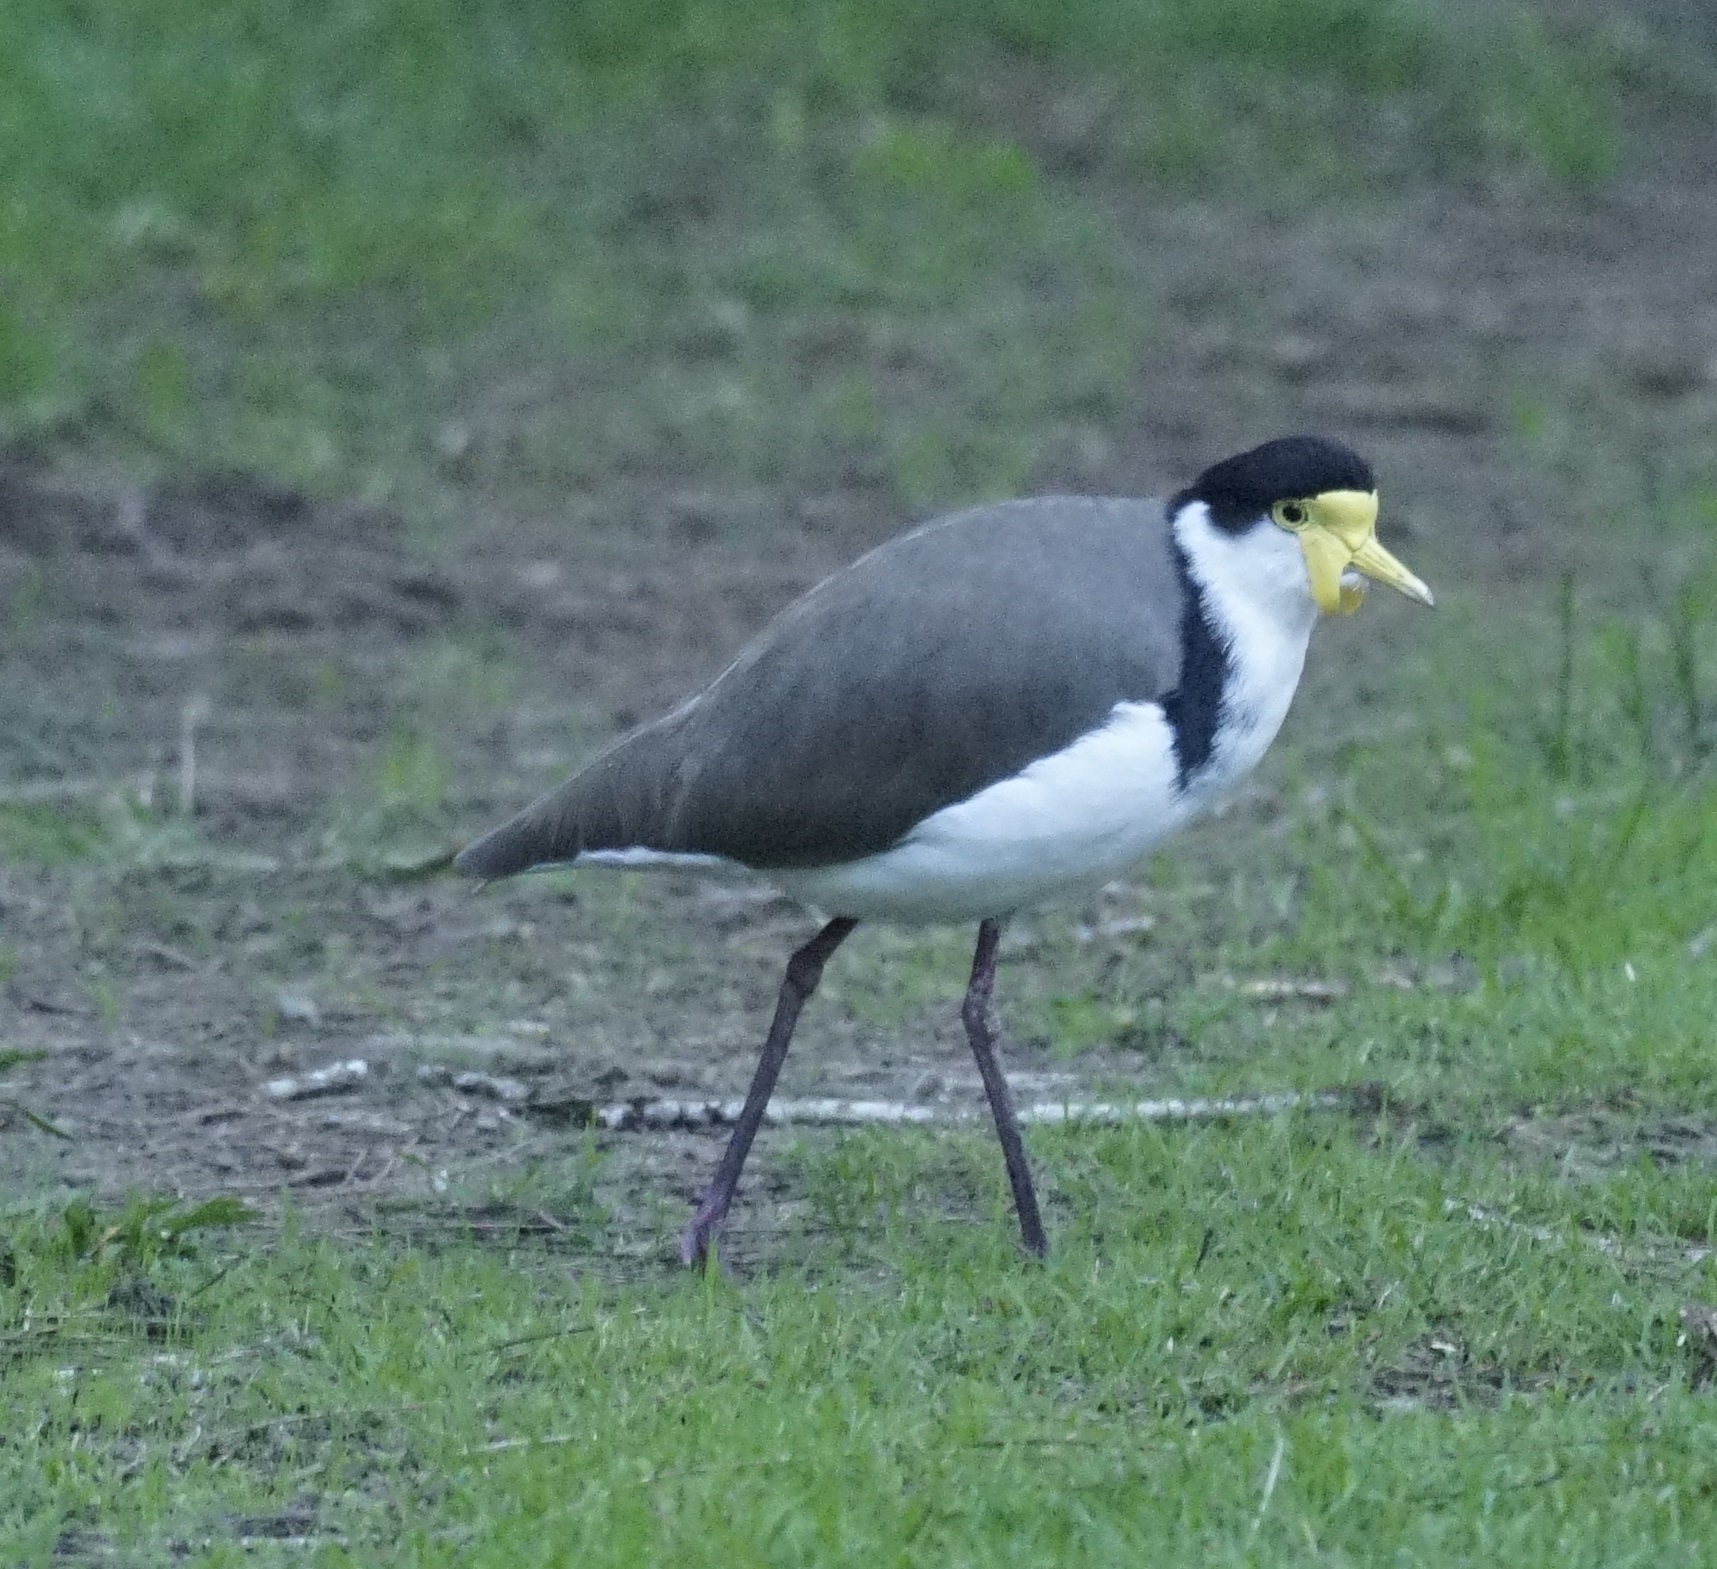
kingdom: Animalia
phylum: Chordata
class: Aves
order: Charadriiformes
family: Charadriidae
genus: Vanellus
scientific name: Vanellus miles
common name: Masked lapwing
